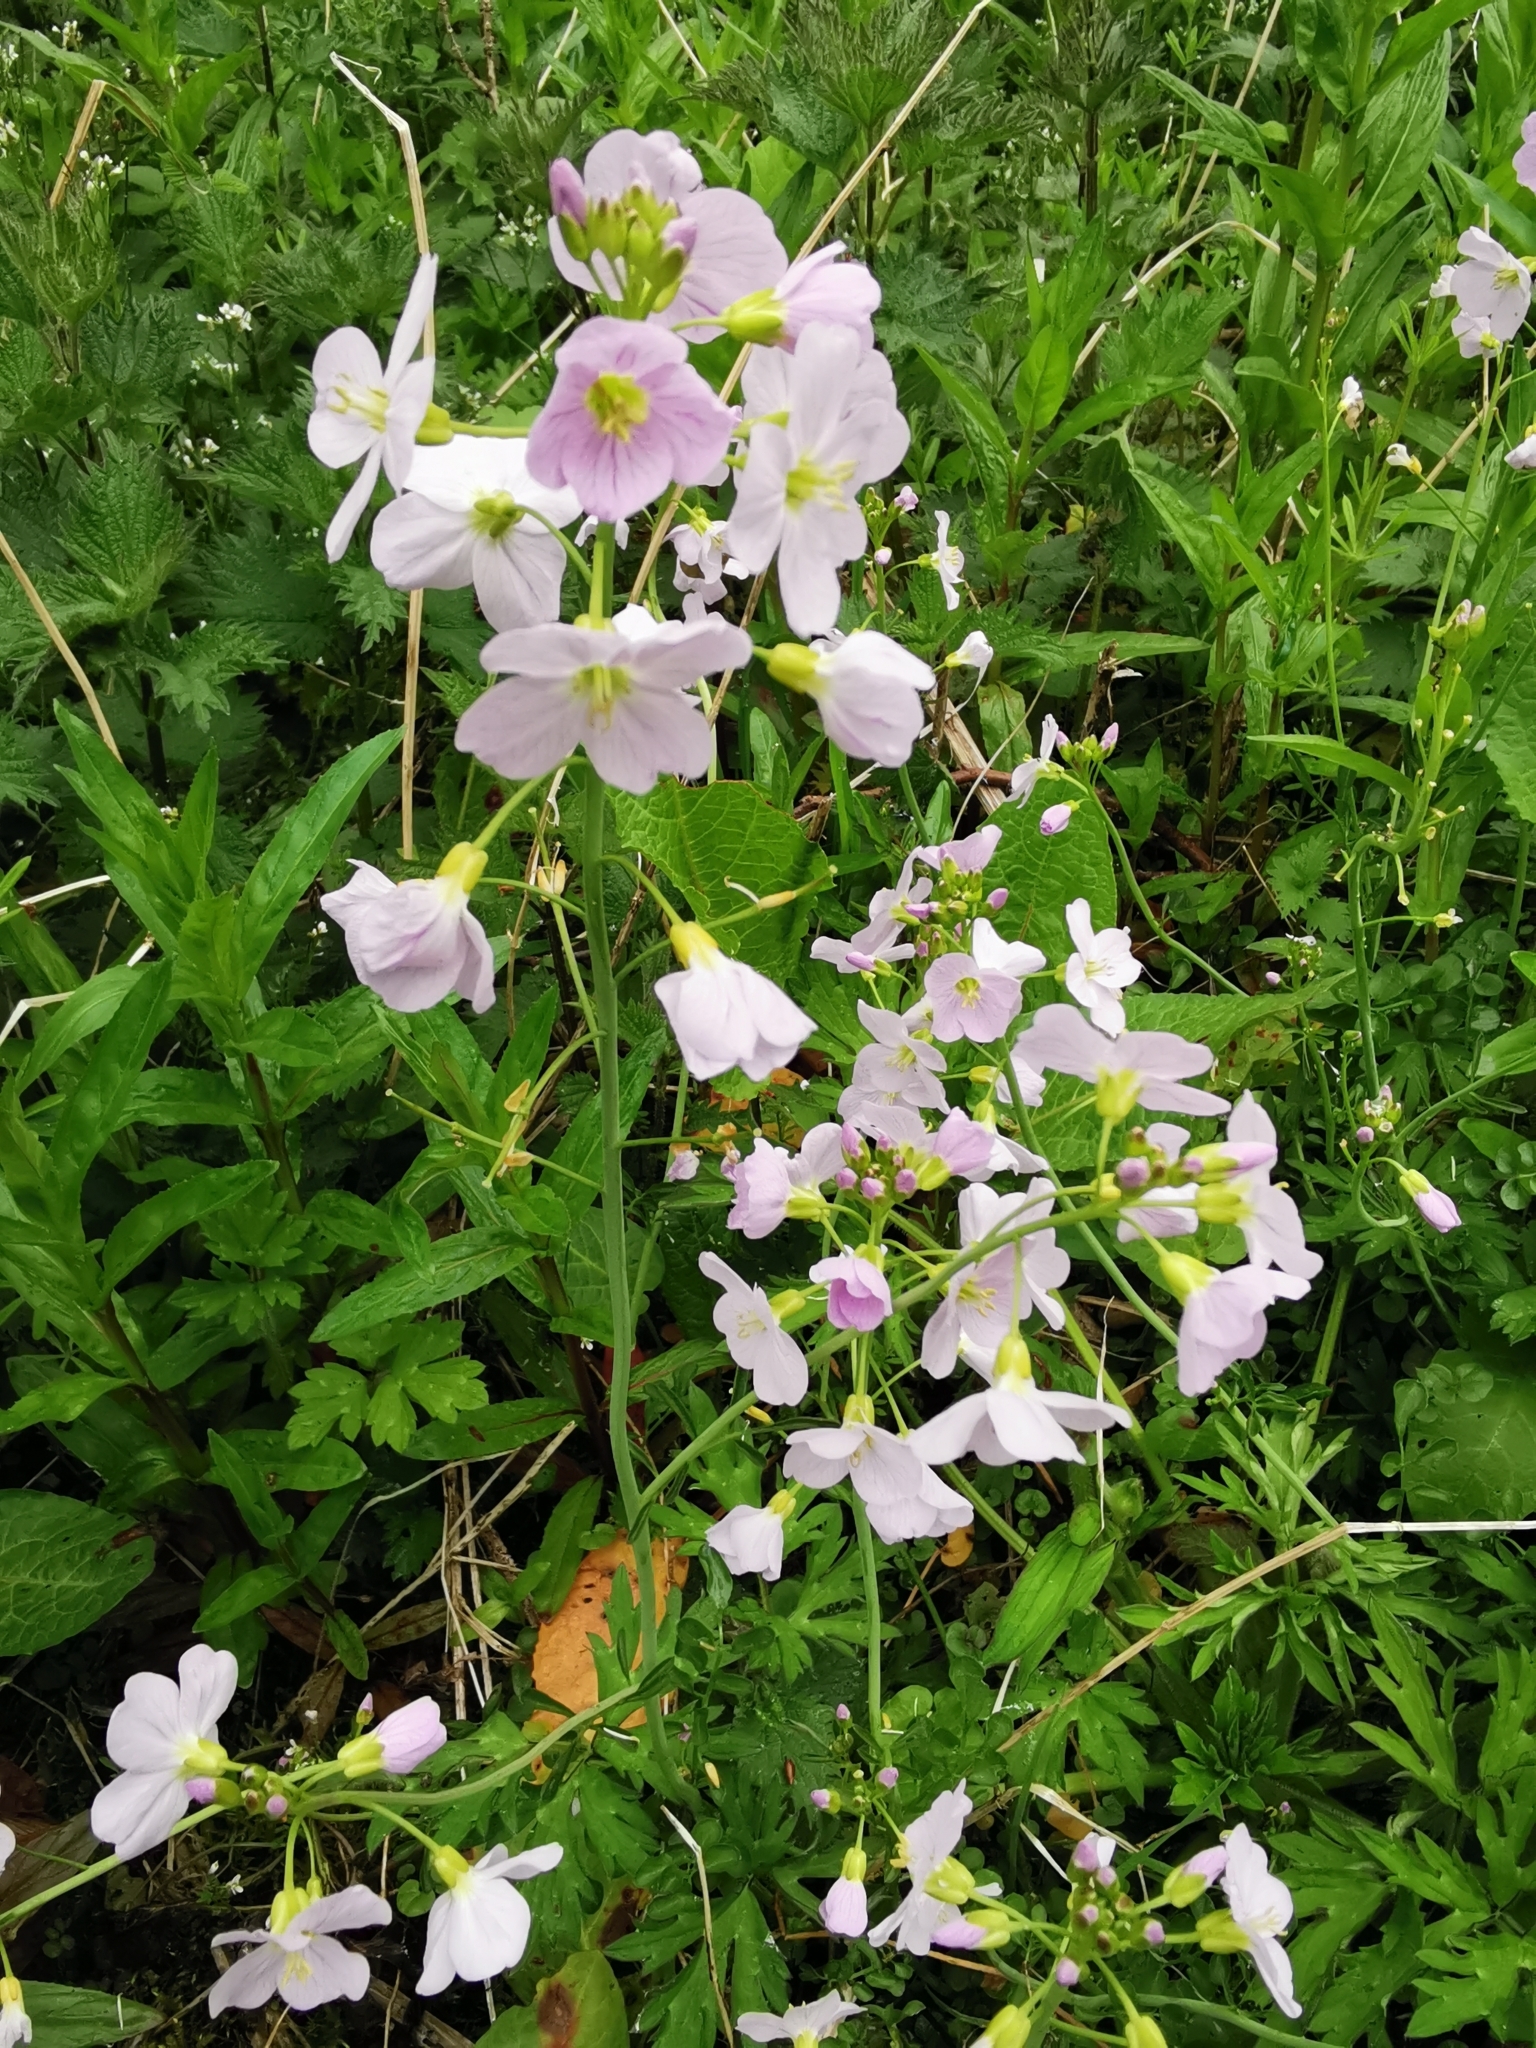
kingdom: Plantae
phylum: Tracheophyta
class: Magnoliopsida
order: Brassicales
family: Brassicaceae
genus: Cardamine
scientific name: Cardamine pratensis
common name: Cuckoo flower
